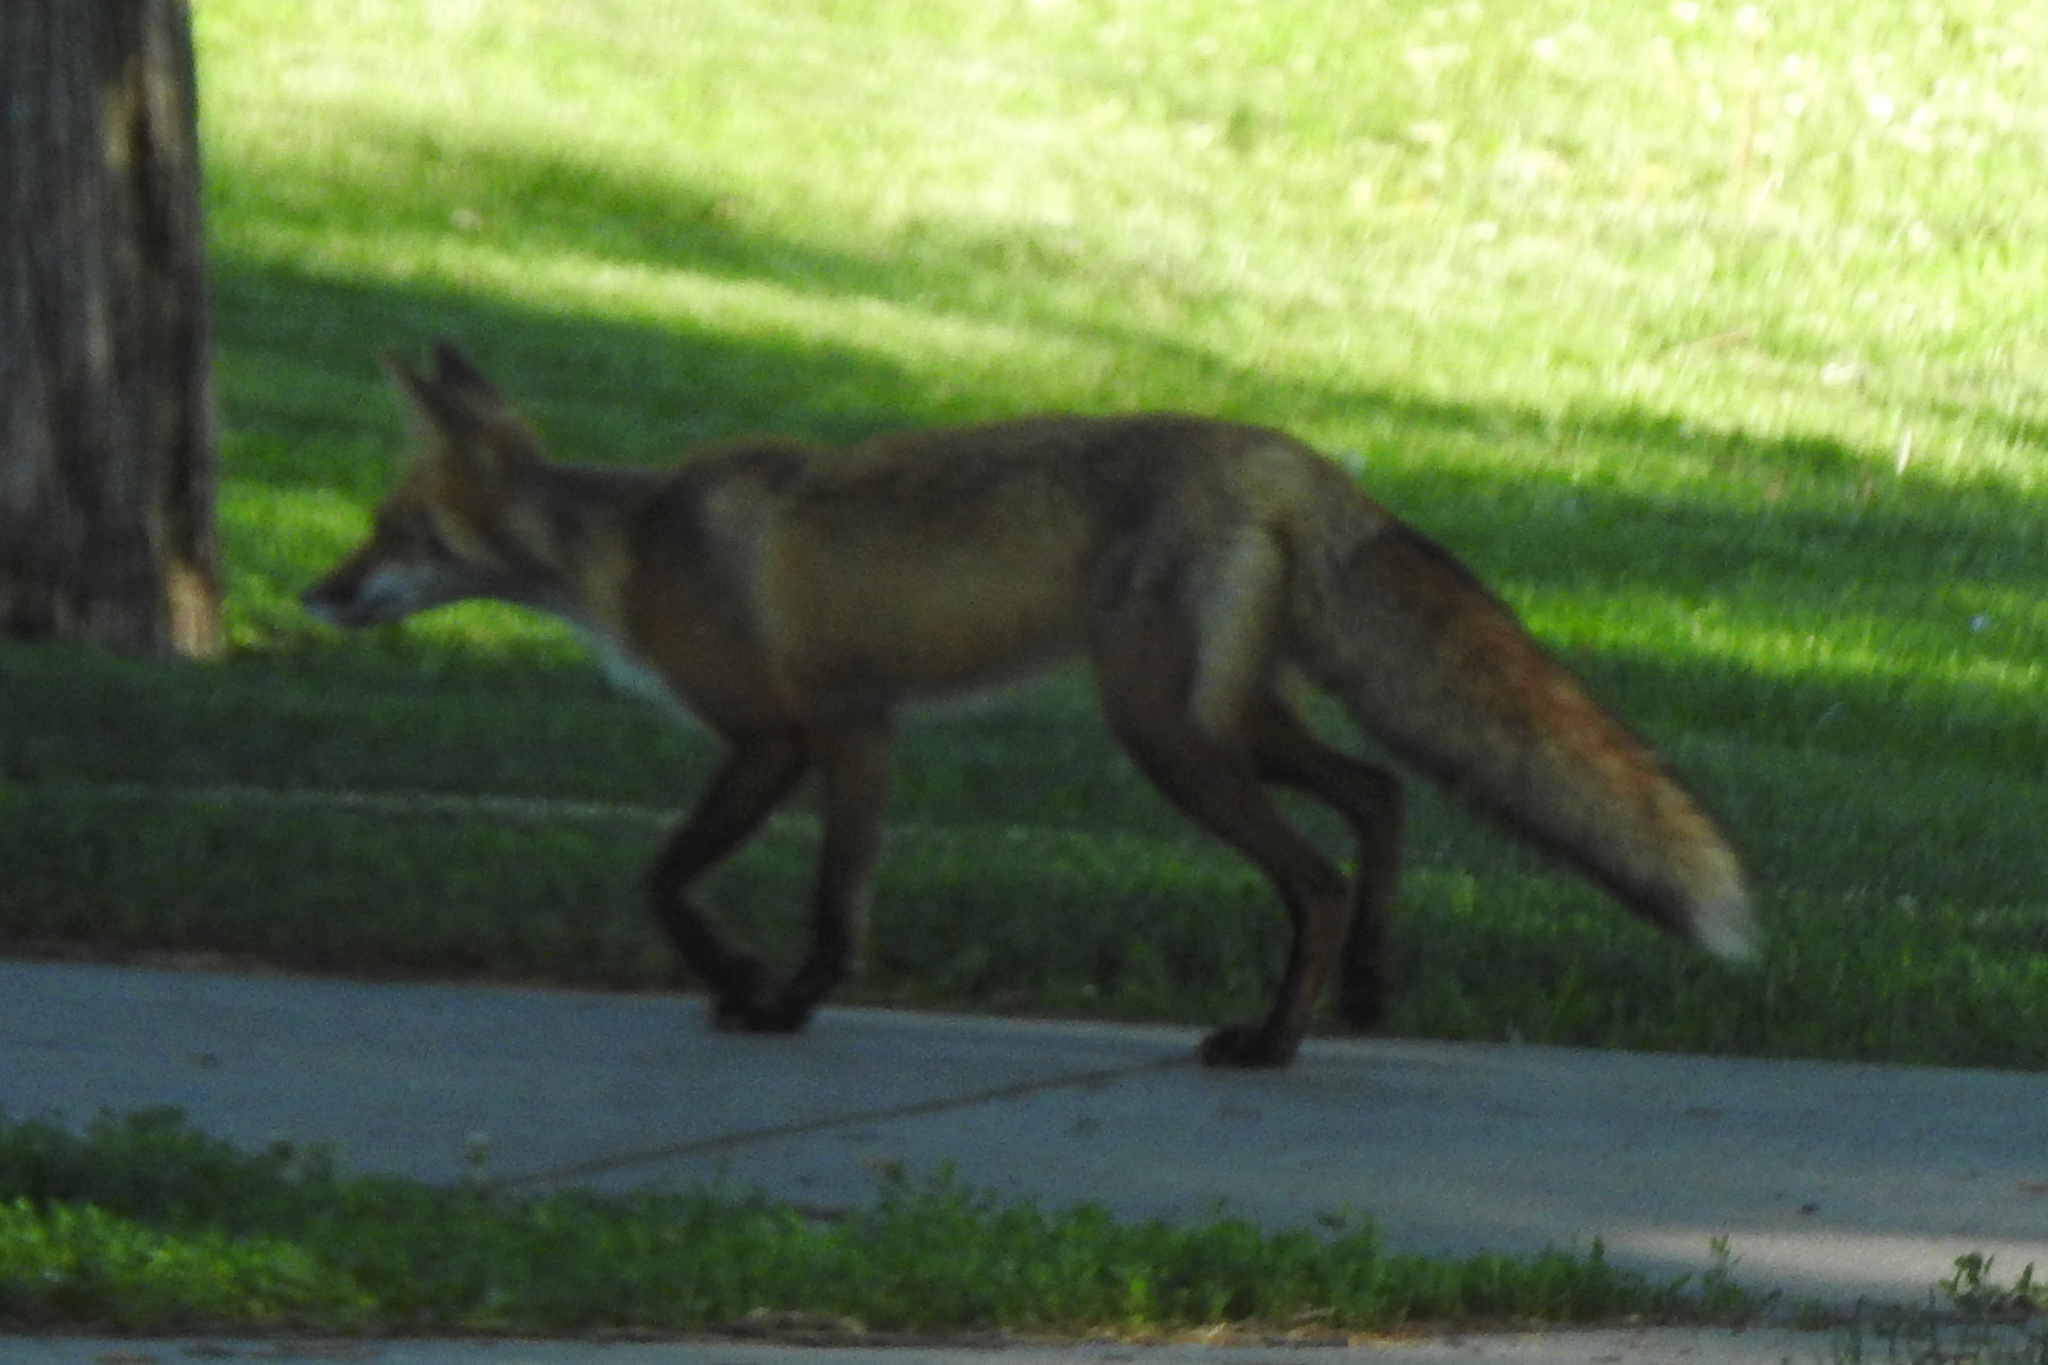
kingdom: Animalia
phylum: Chordata
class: Mammalia
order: Carnivora
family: Canidae
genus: Vulpes
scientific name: Vulpes vulpes
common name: Red fox
